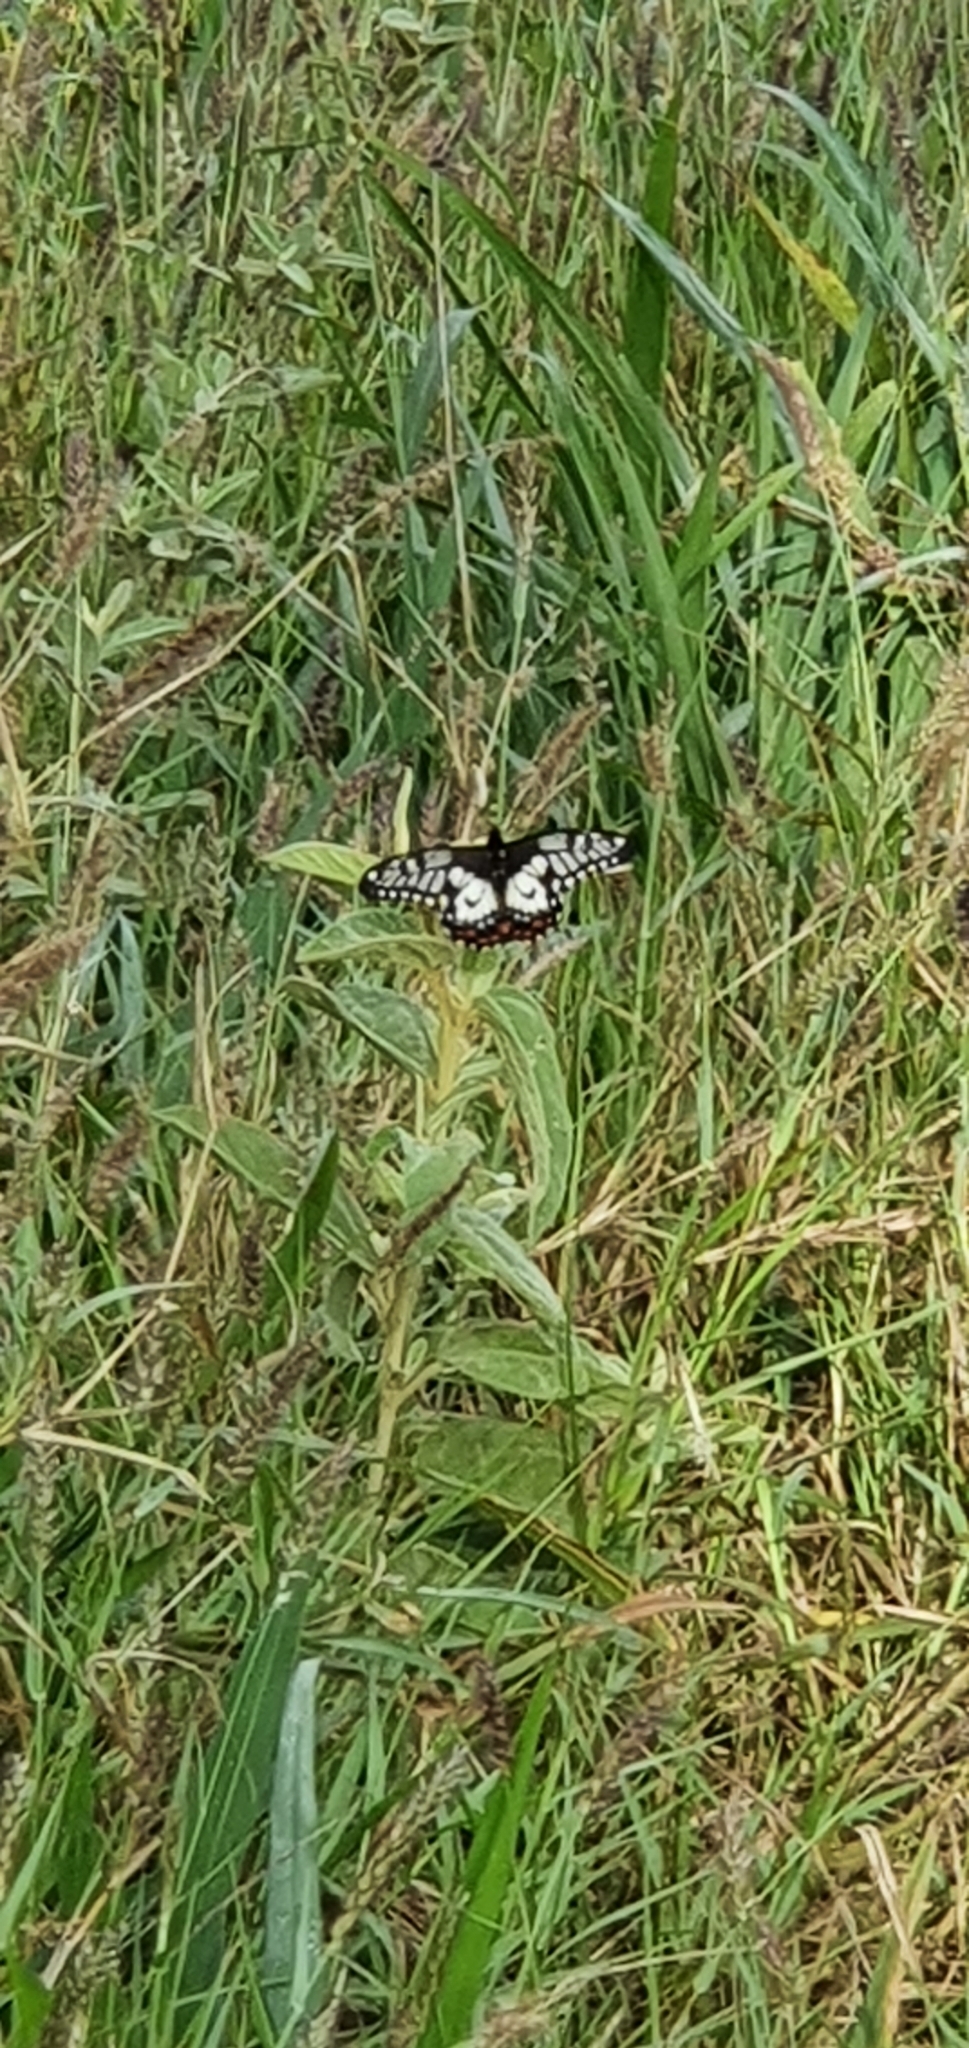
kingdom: Animalia
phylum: Arthropoda
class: Insecta
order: Lepidoptera
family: Papilionidae
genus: Papilio
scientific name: Papilio anactus
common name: Dingy swallowtail
